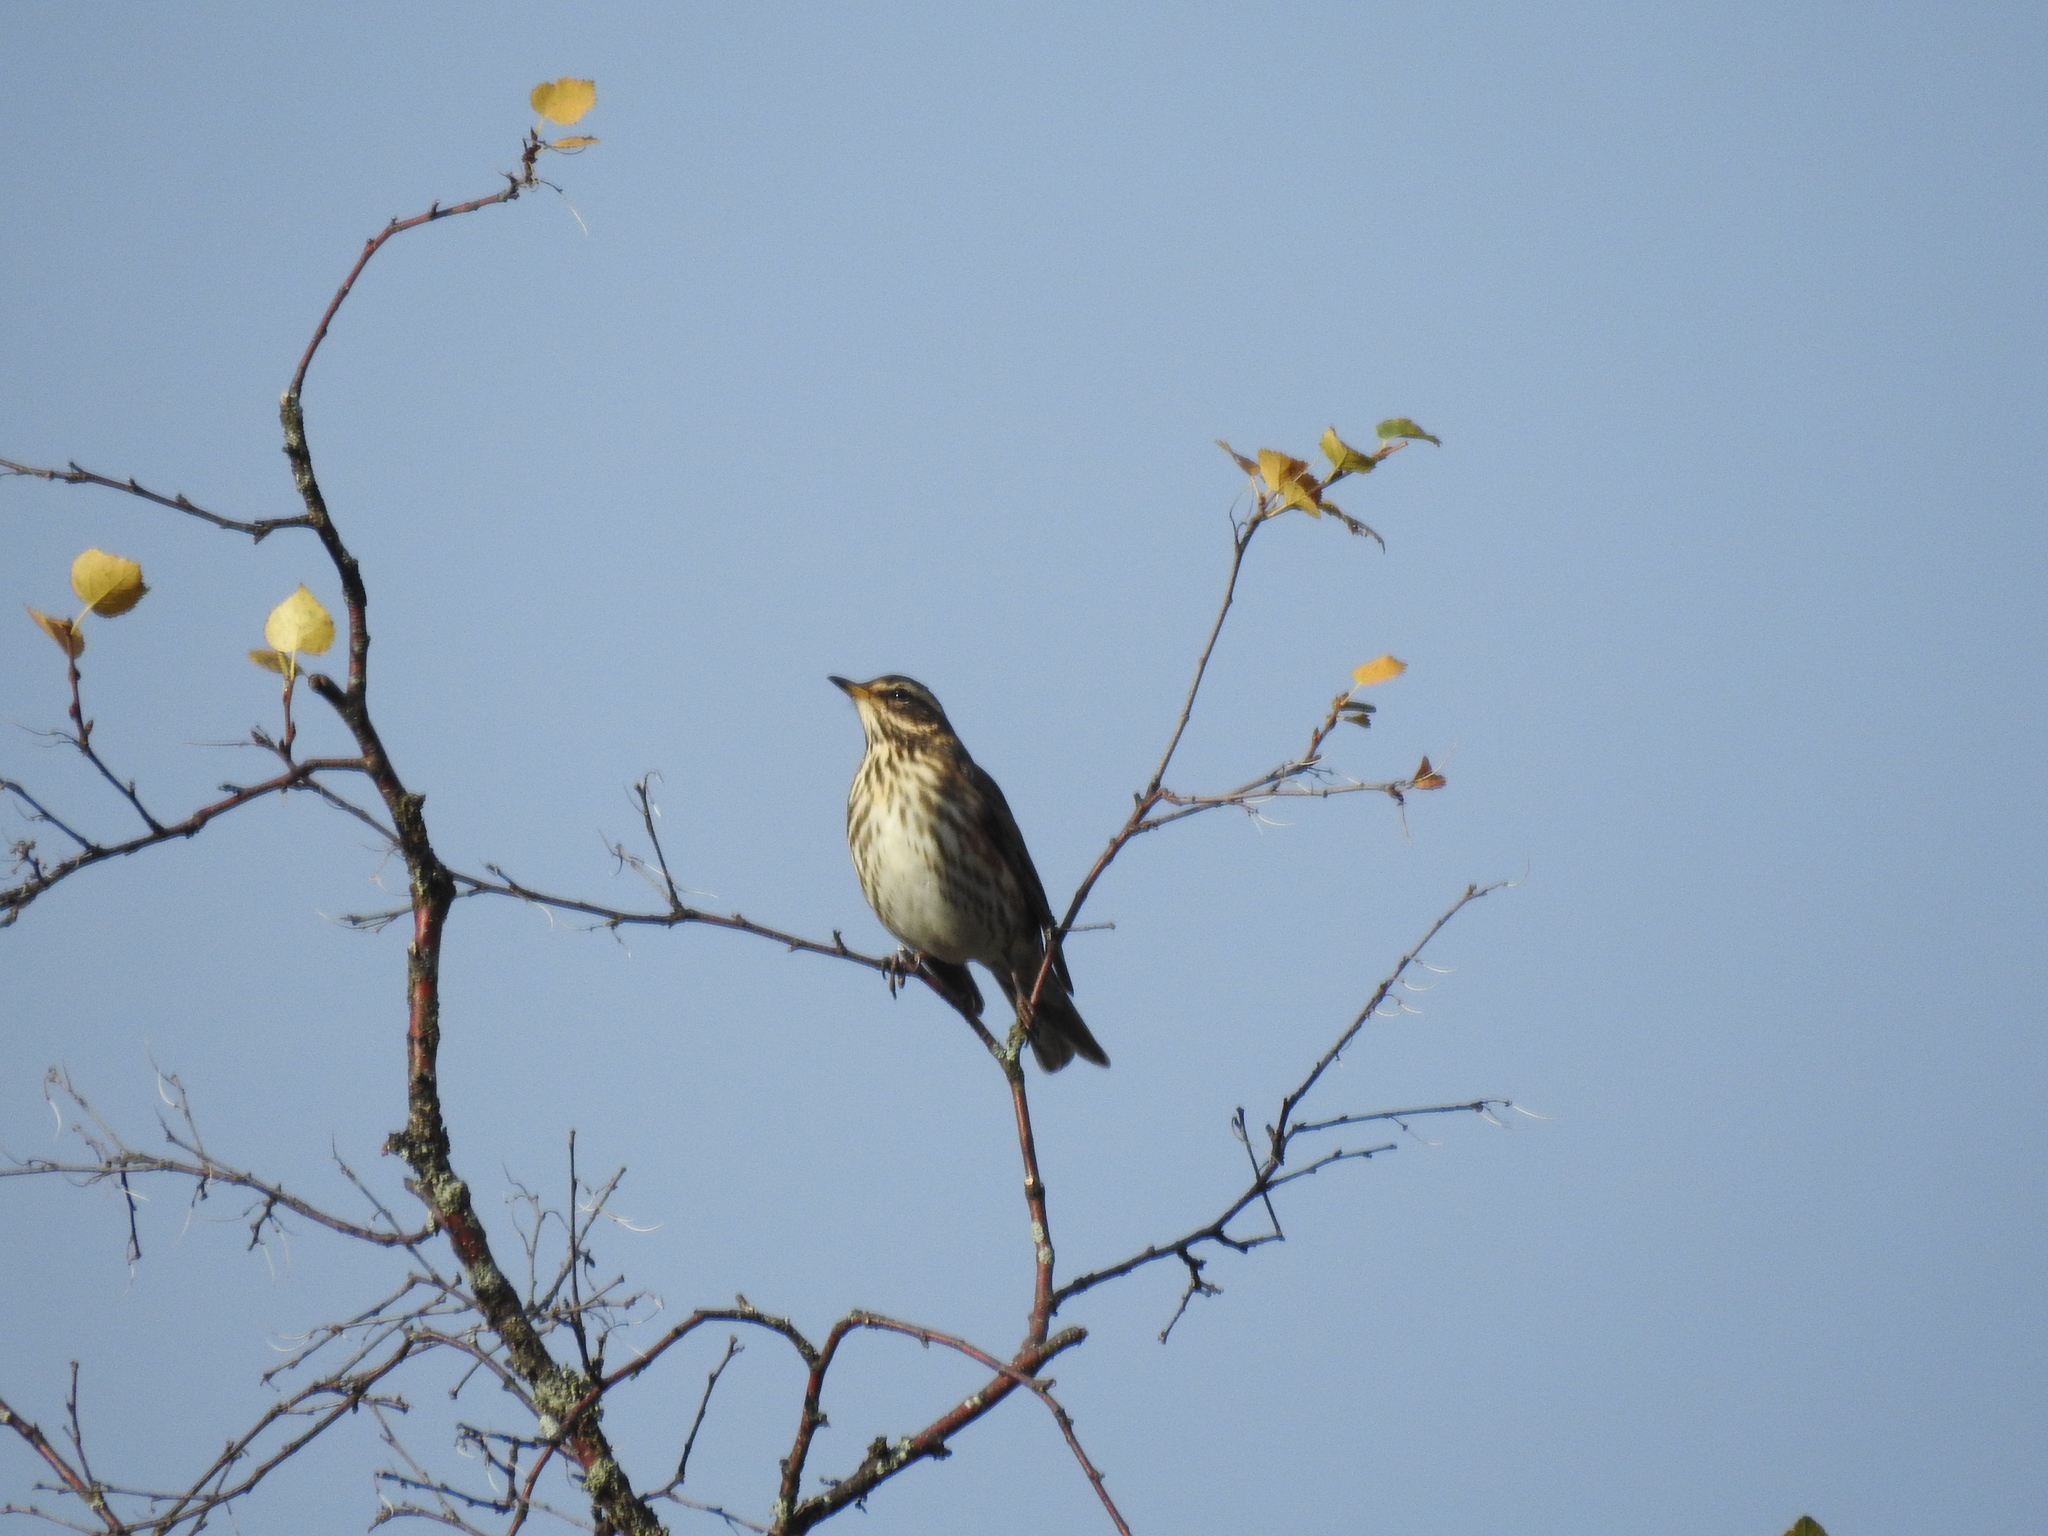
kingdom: Animalia
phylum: Chordata
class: Aves
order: Passeriformes
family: Turdidae
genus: Turdus
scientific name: Turdus iliacus
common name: Redwing
